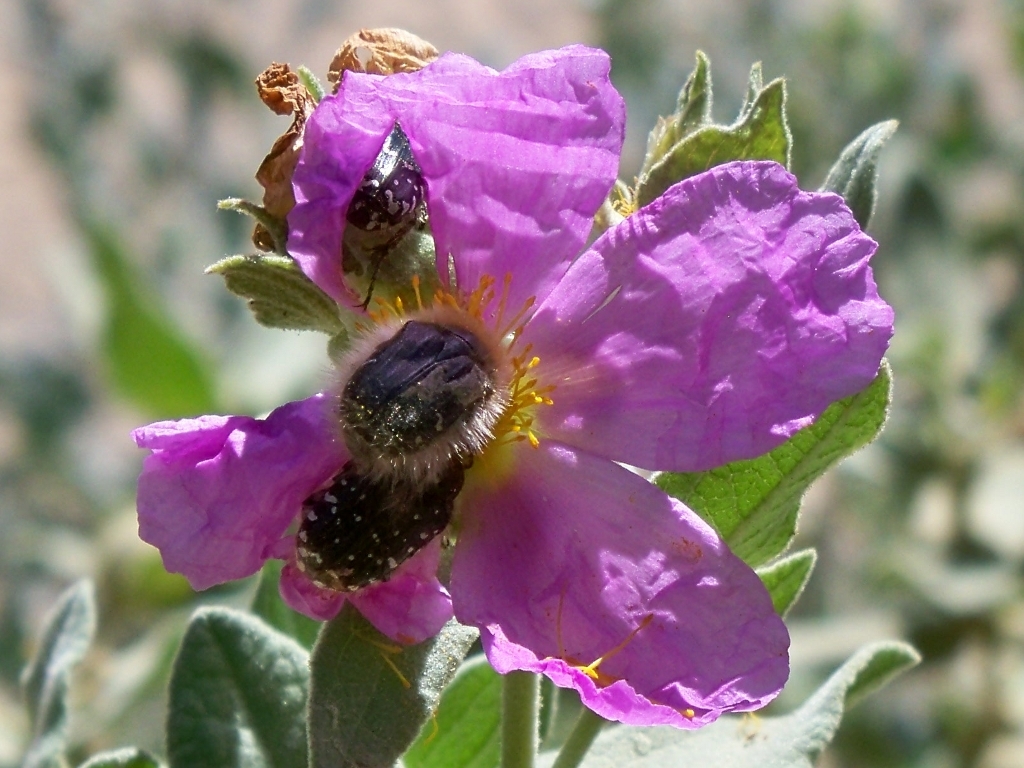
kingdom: Plantae
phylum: Tracheophyta
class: Magnoliopsida
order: Malvales
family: Cistaceae
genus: Cistus
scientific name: Cistus albidus
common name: White-leaf rock-rose
